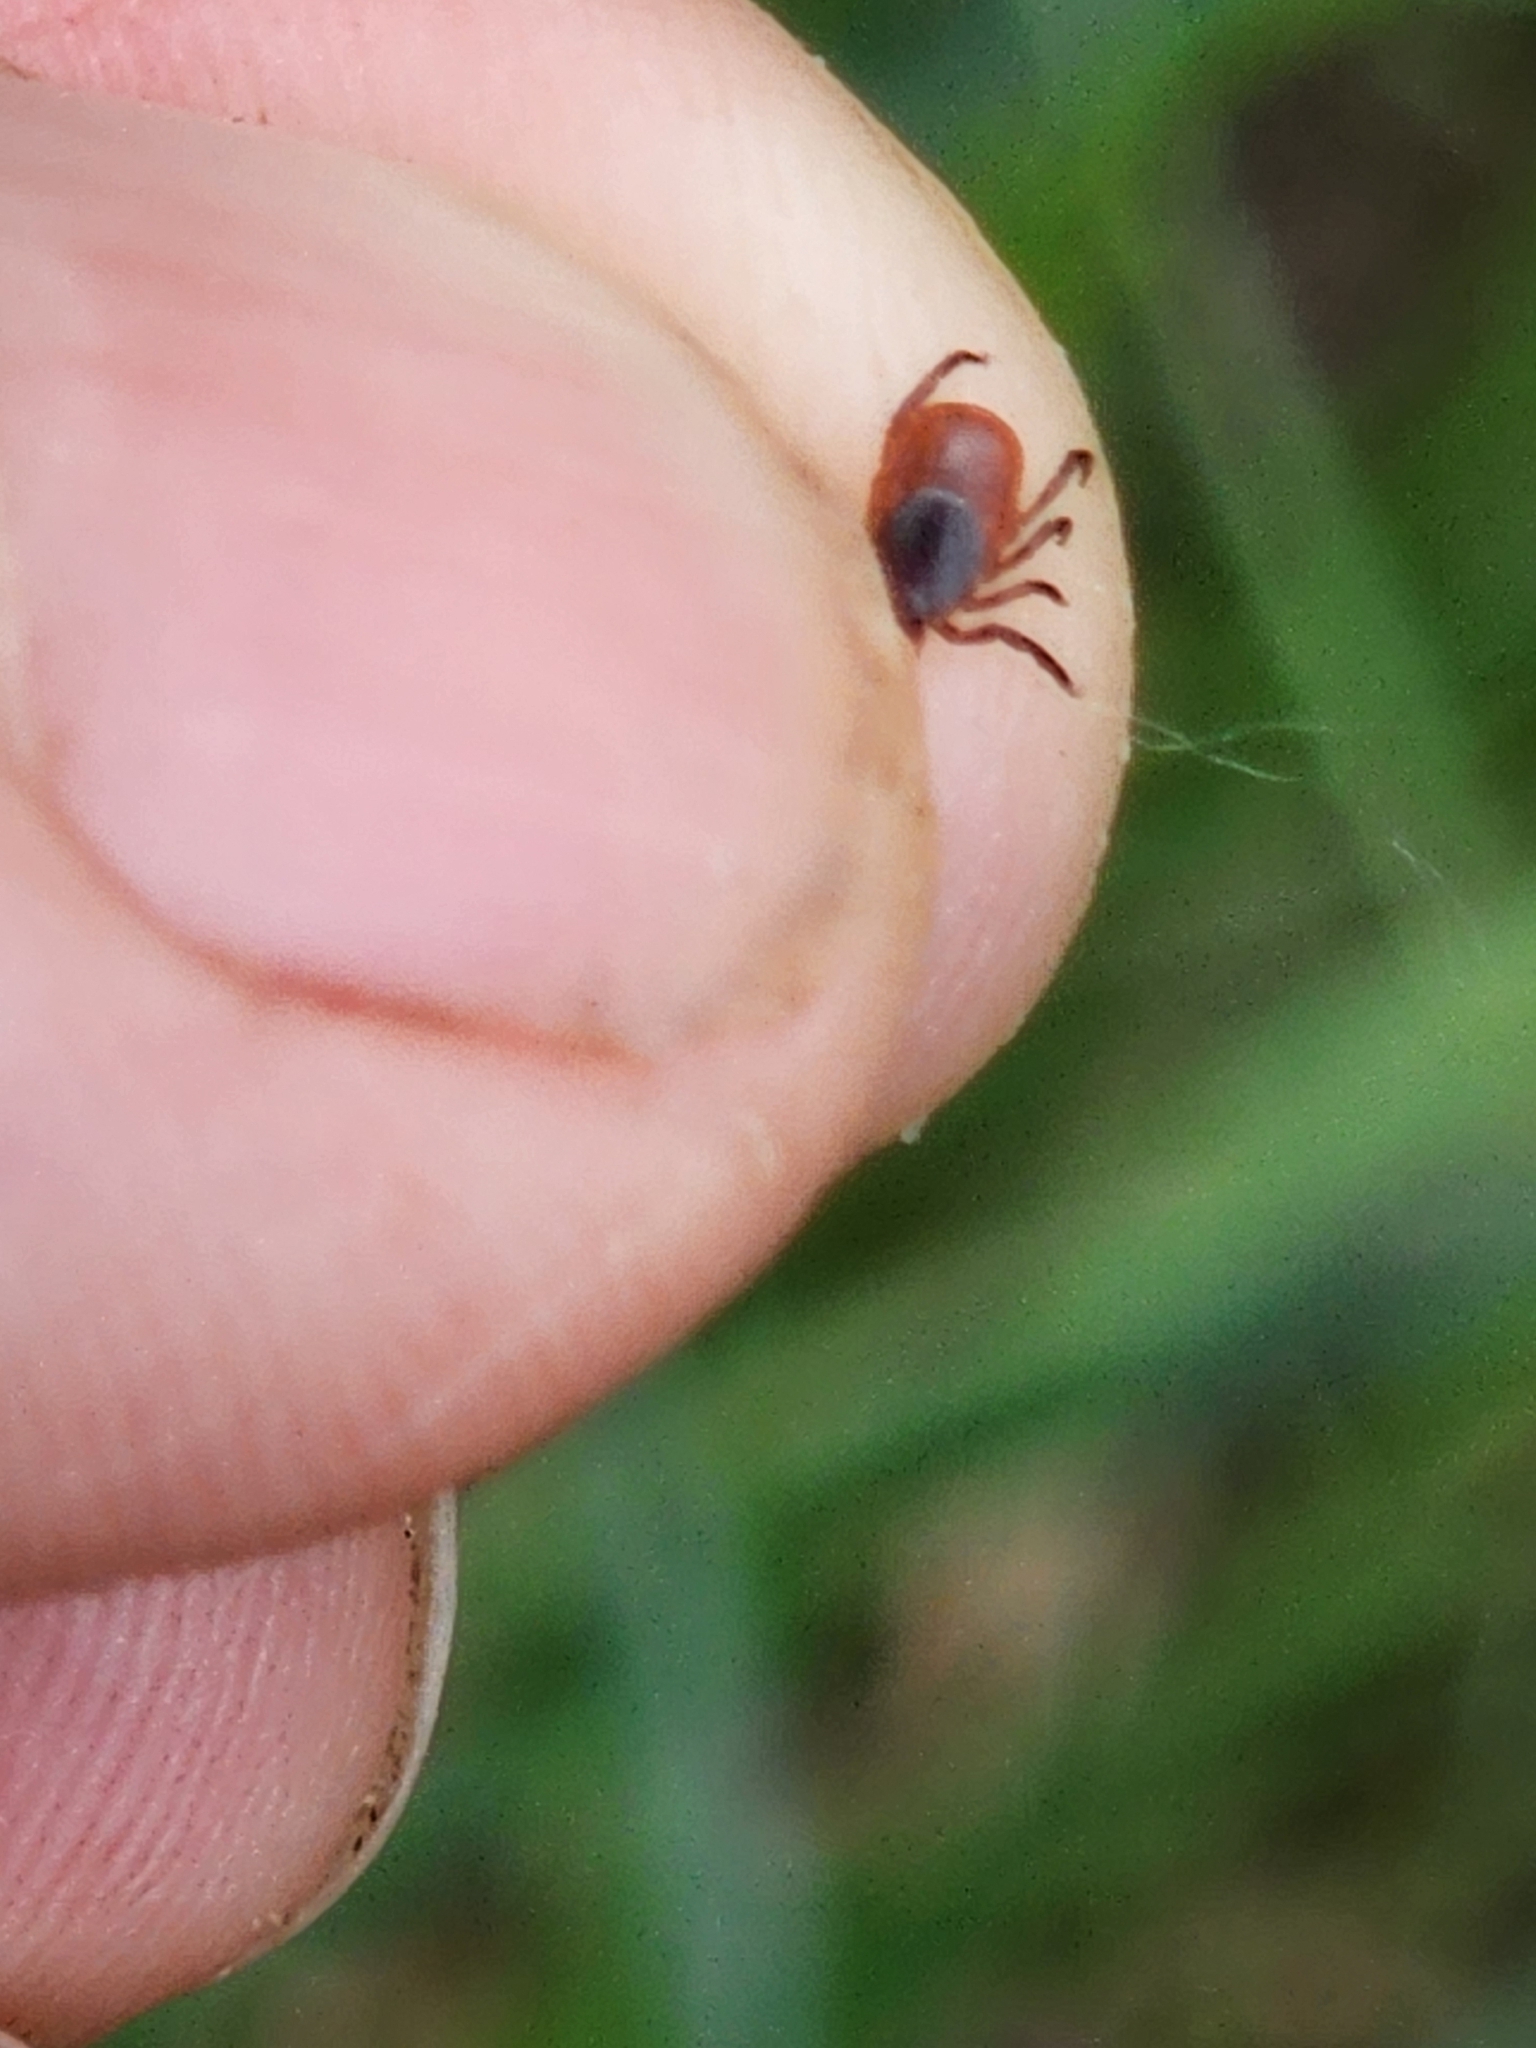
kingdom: Animalia
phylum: Arthropoda
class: Arachnida
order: Ixodida
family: Ixodidae
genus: Ixodes
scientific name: Ixodes scapularis
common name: Black legged tick
